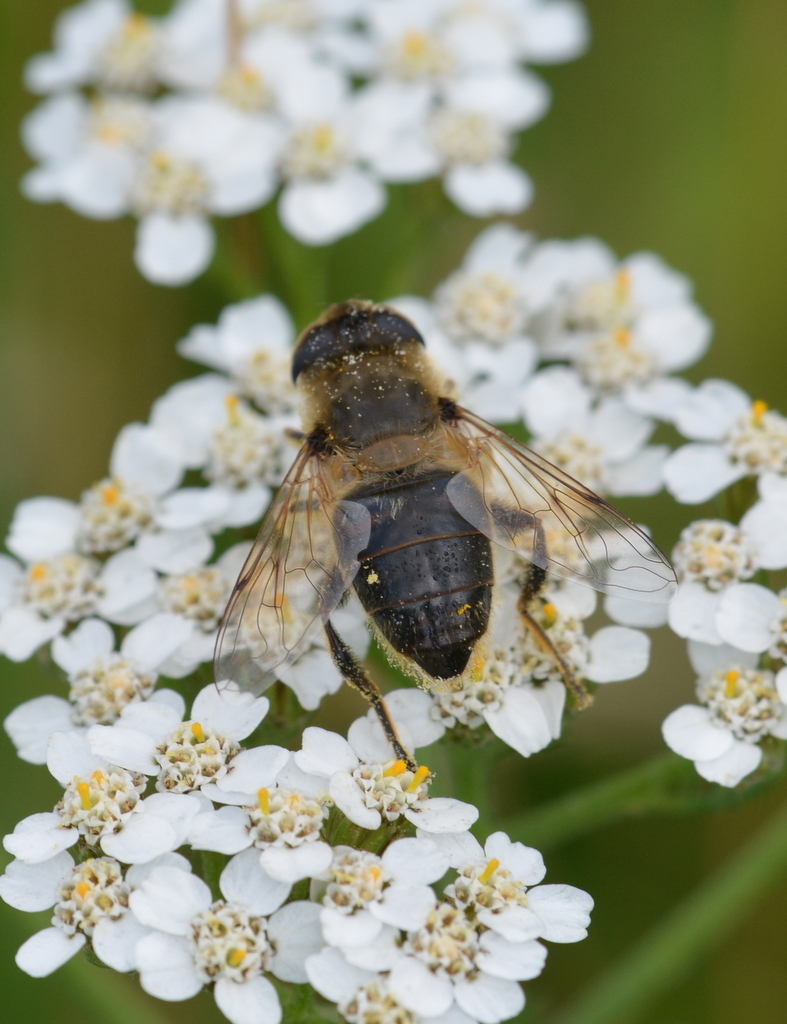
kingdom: Animalia
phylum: Arthropoda
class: Insecta
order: Diptera
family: Syrphidae
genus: Eristalis
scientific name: Eristalis tenax
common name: Drone fly
